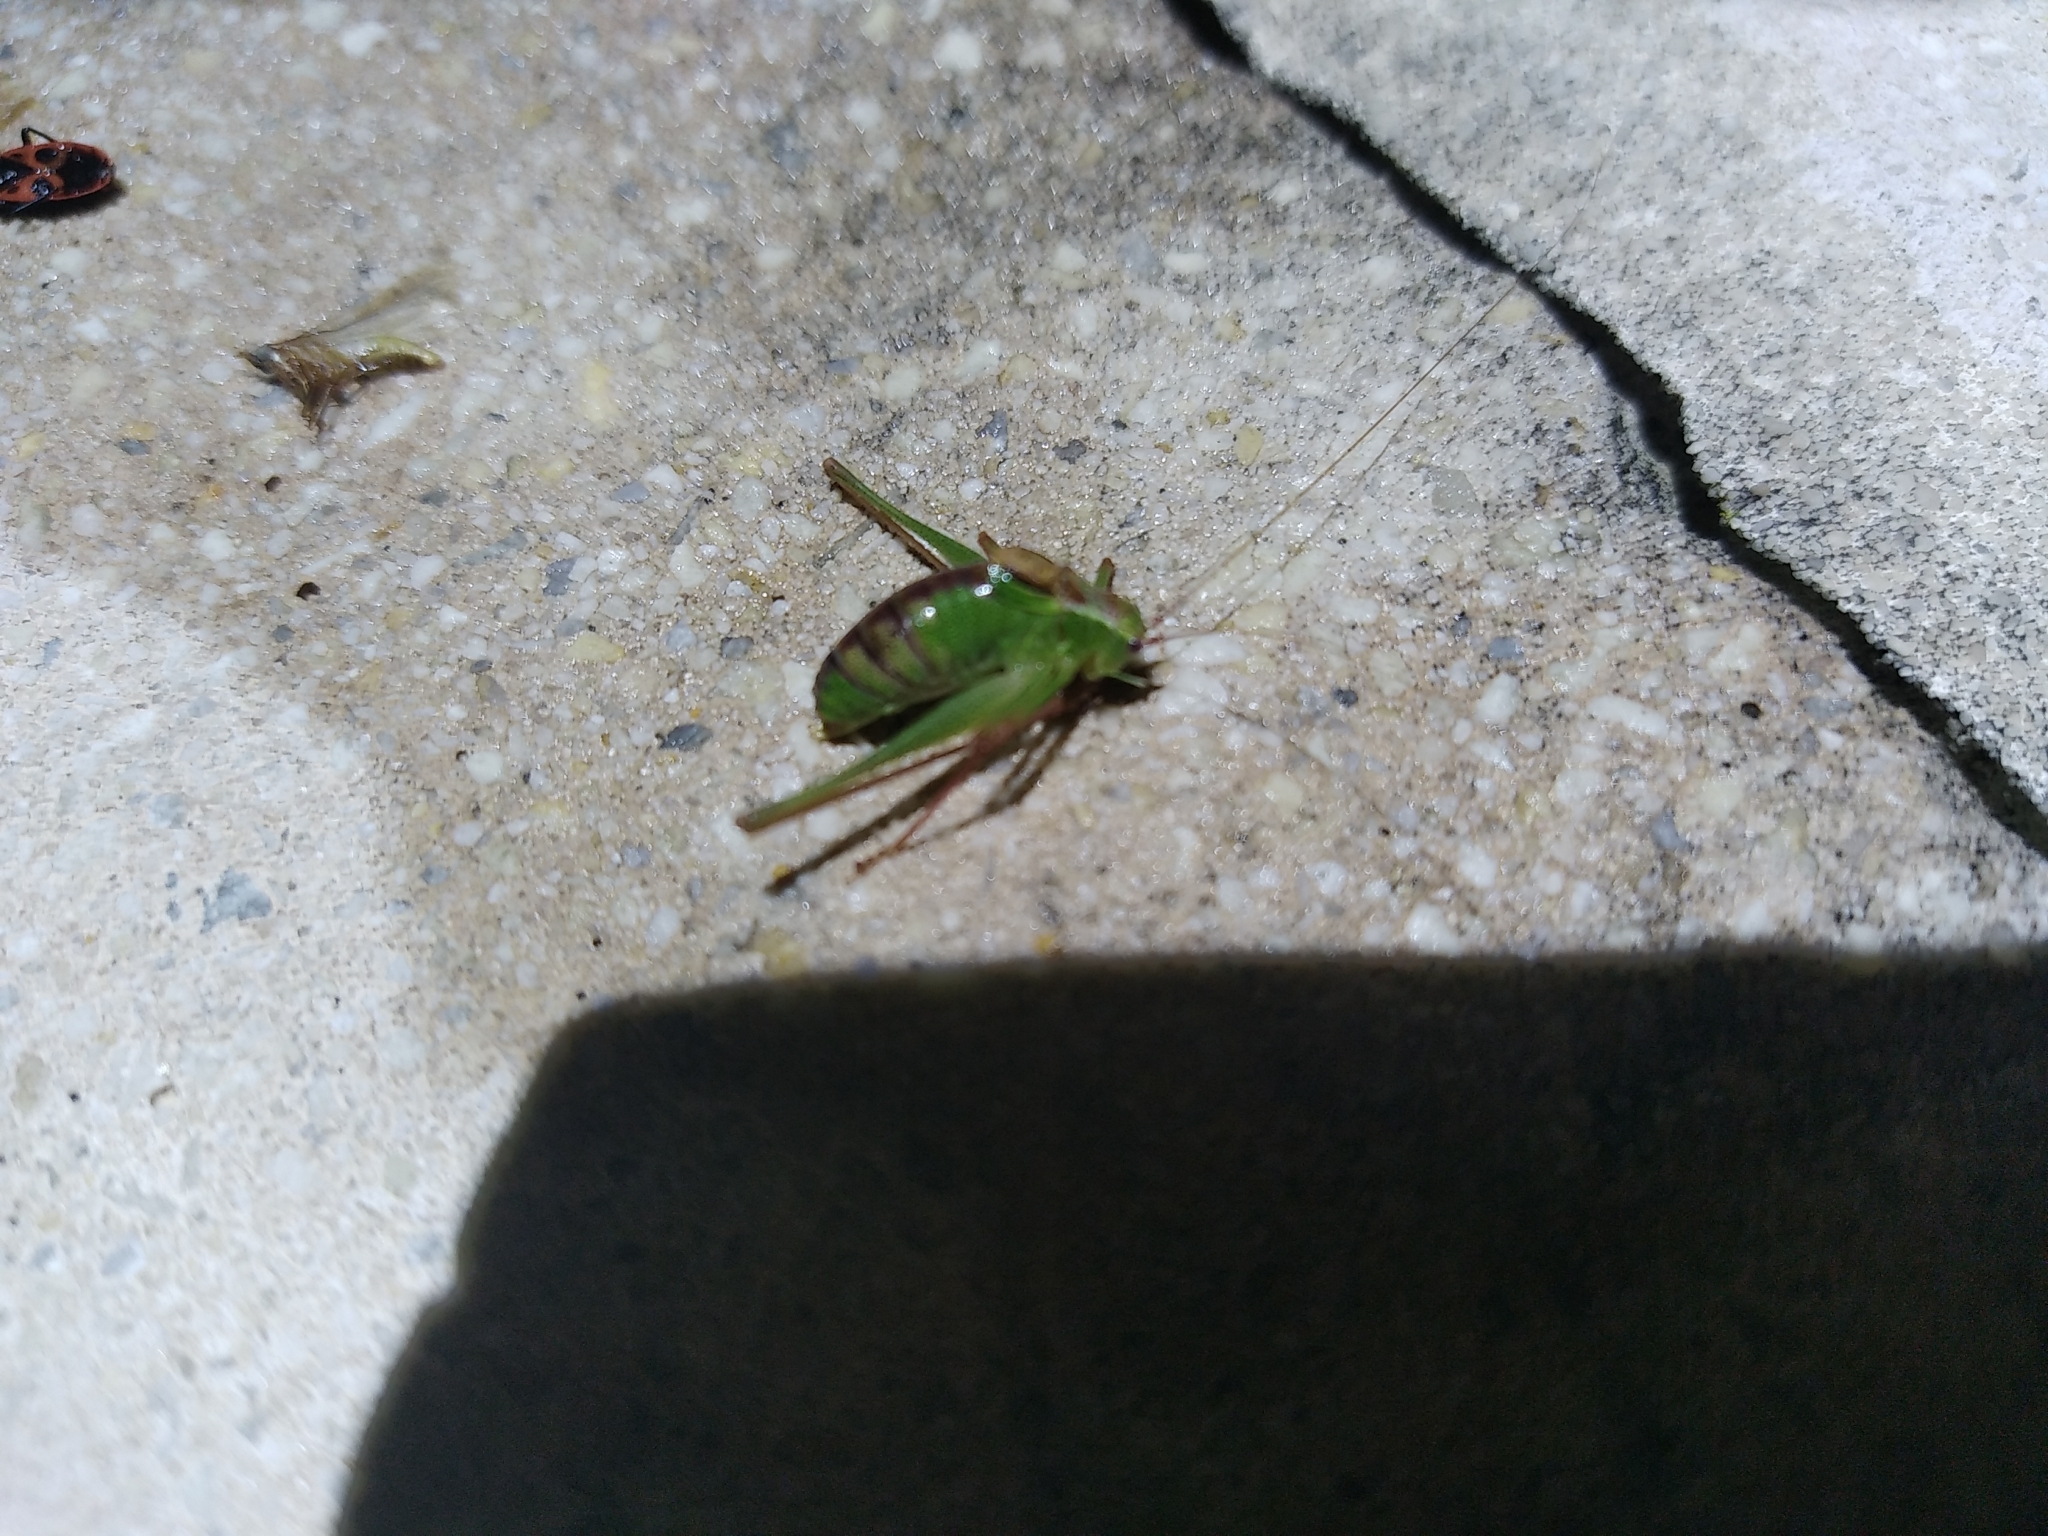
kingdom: Animalia
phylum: Arthropoda
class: Insecta
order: Orthoptera
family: Tettigoniidae
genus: Leptophyes
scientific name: Leptophyes punctatissima
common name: Speckled bush-cricket
